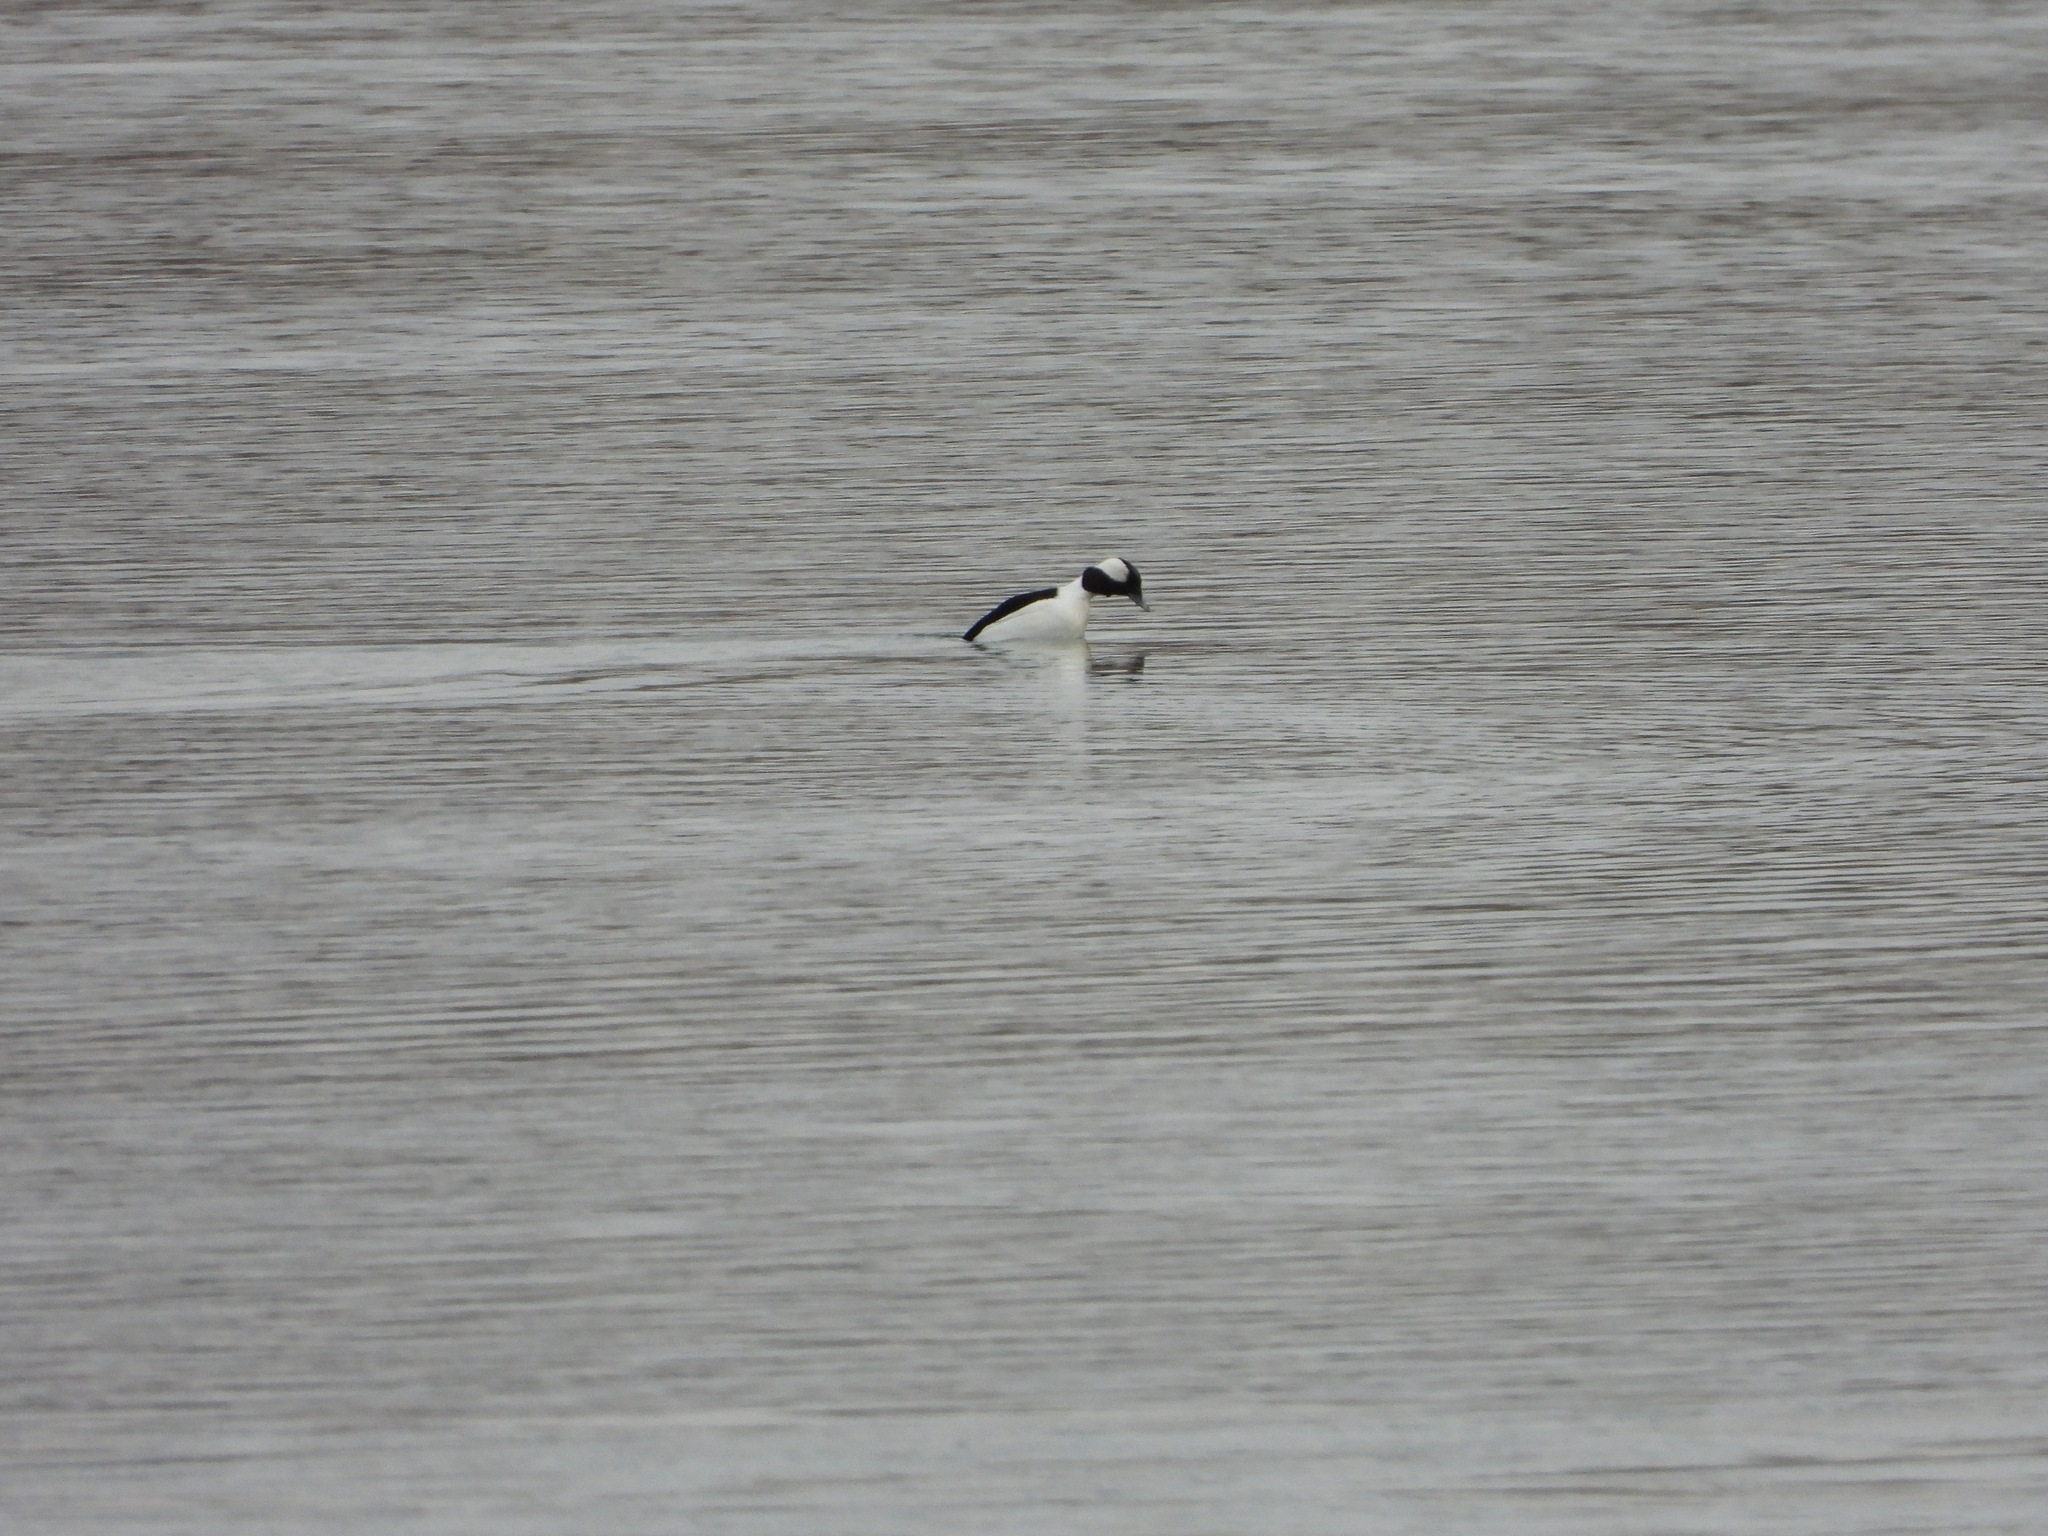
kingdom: Animalia
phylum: Chordata
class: Aves
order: Anseriformes
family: Anatidae
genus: Bucephala
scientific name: Bucephala albeola
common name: Bufflehead
